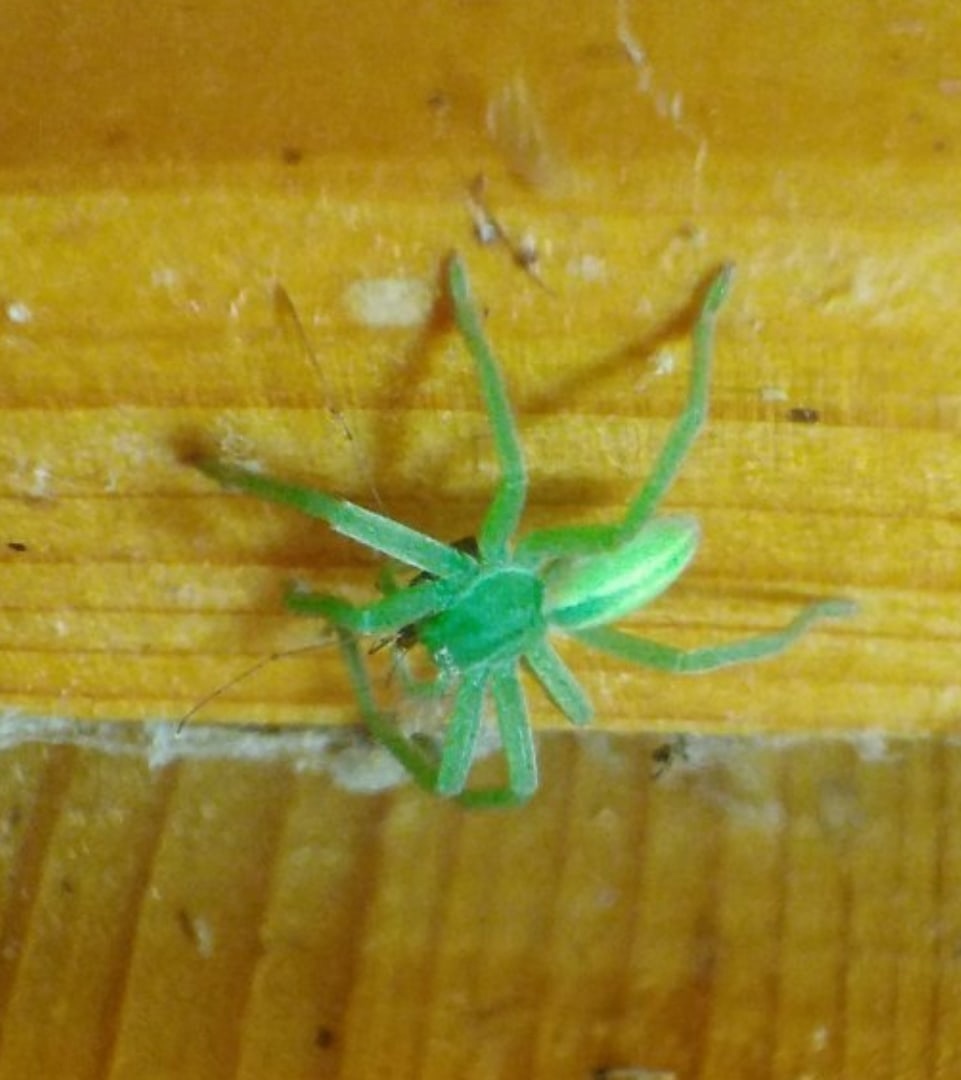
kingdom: Animalia
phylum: Arthropoda
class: Arachnida
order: Araneae
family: Sparassidae
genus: Micrommata
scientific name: Micrommata virescens
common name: Green spider
